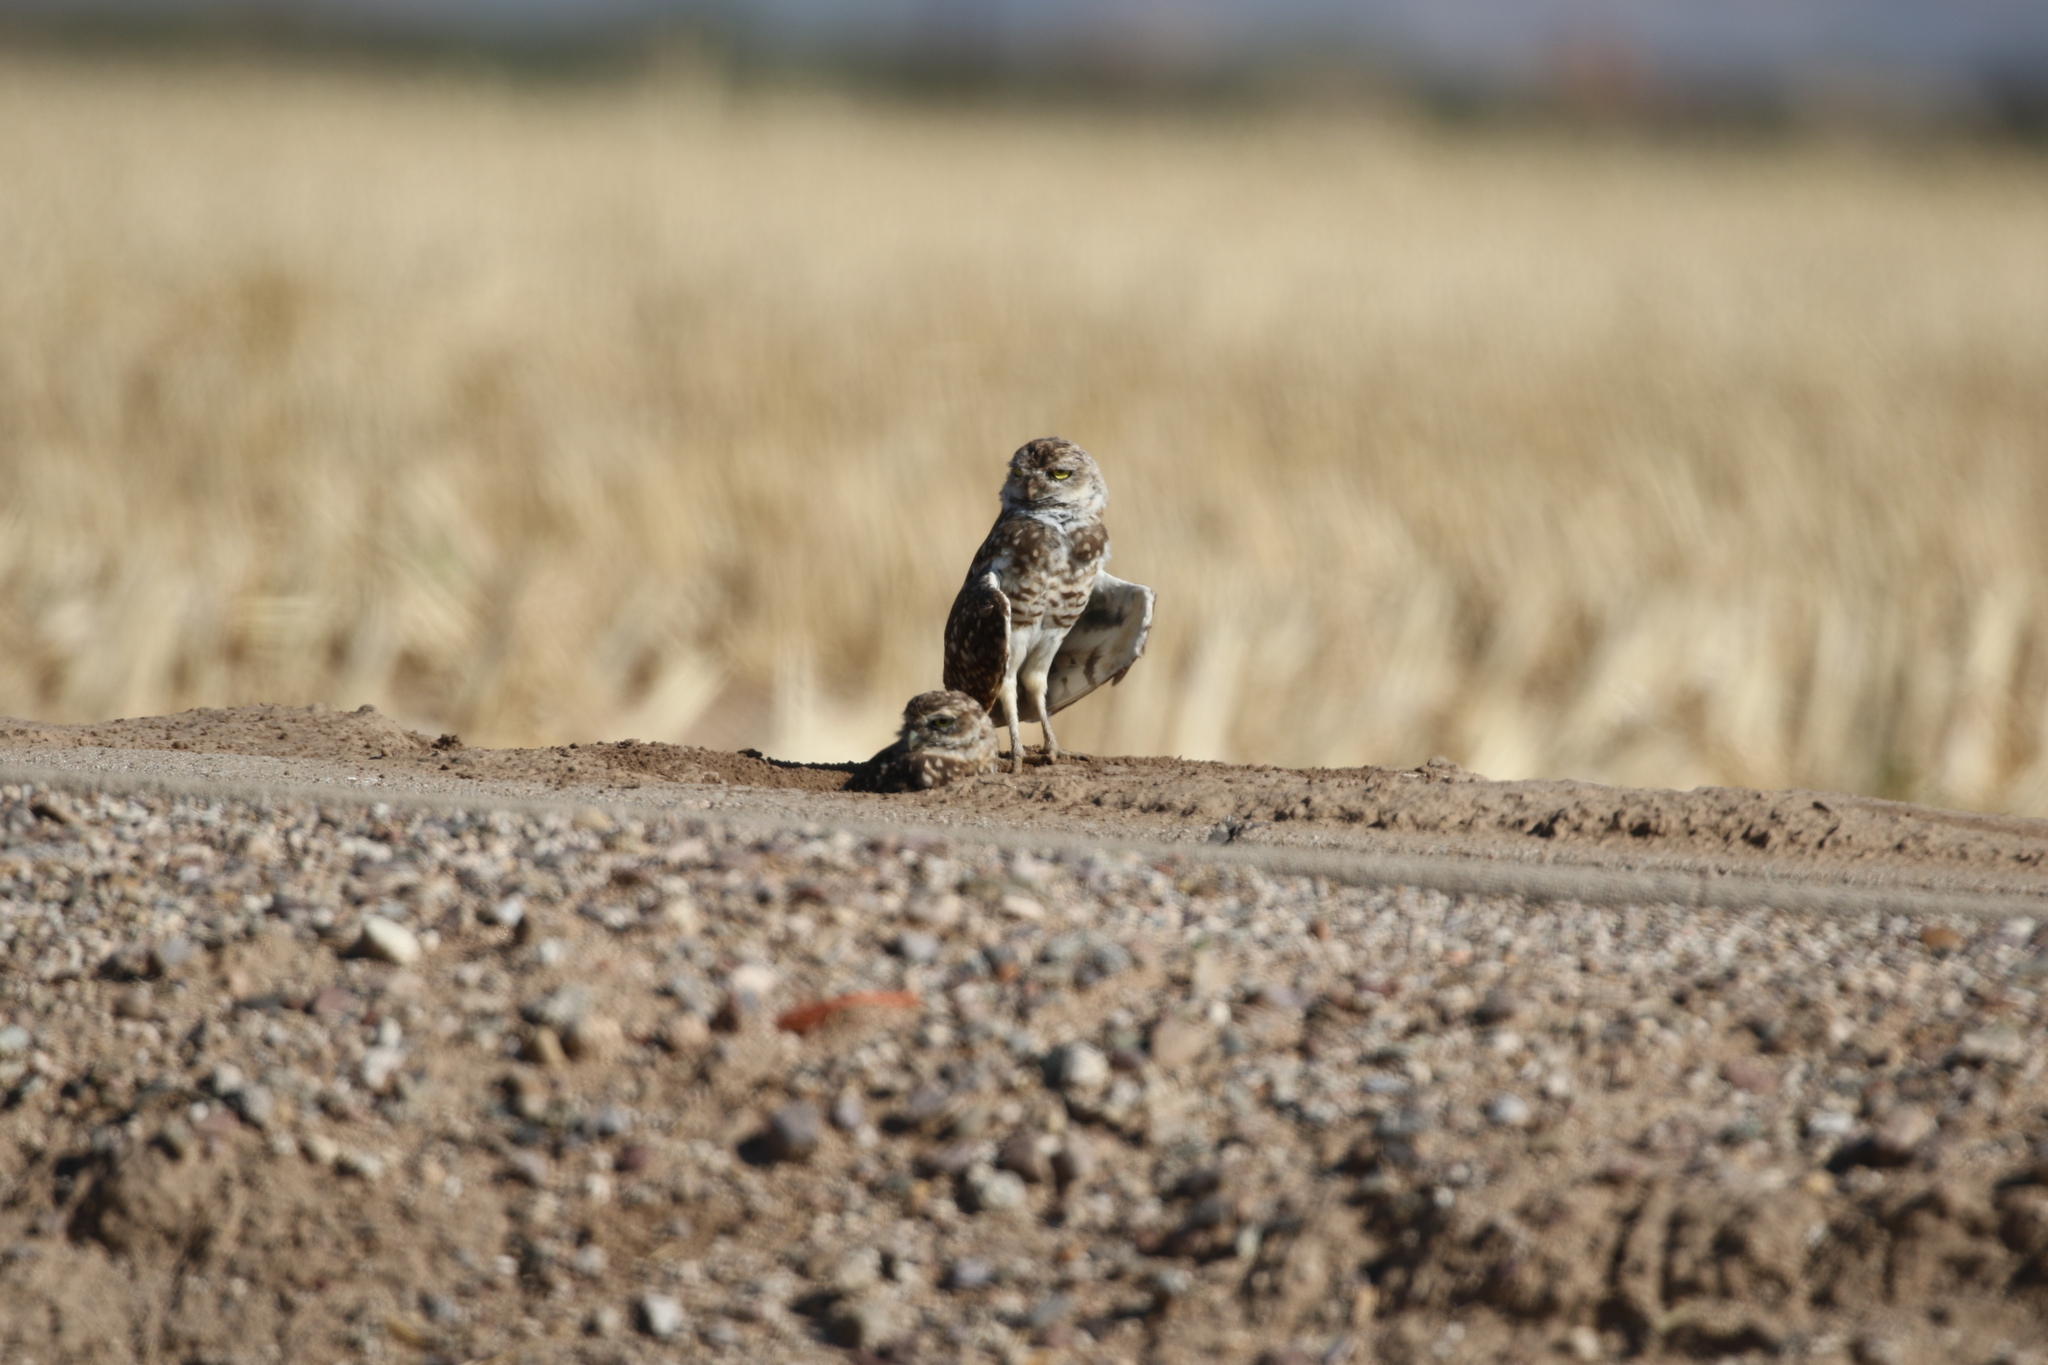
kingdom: Animalia
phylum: Chordata
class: Aves
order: Strigiformes
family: Strigidae
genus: Athene
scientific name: Athene cunicularia
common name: Burrowing owl
